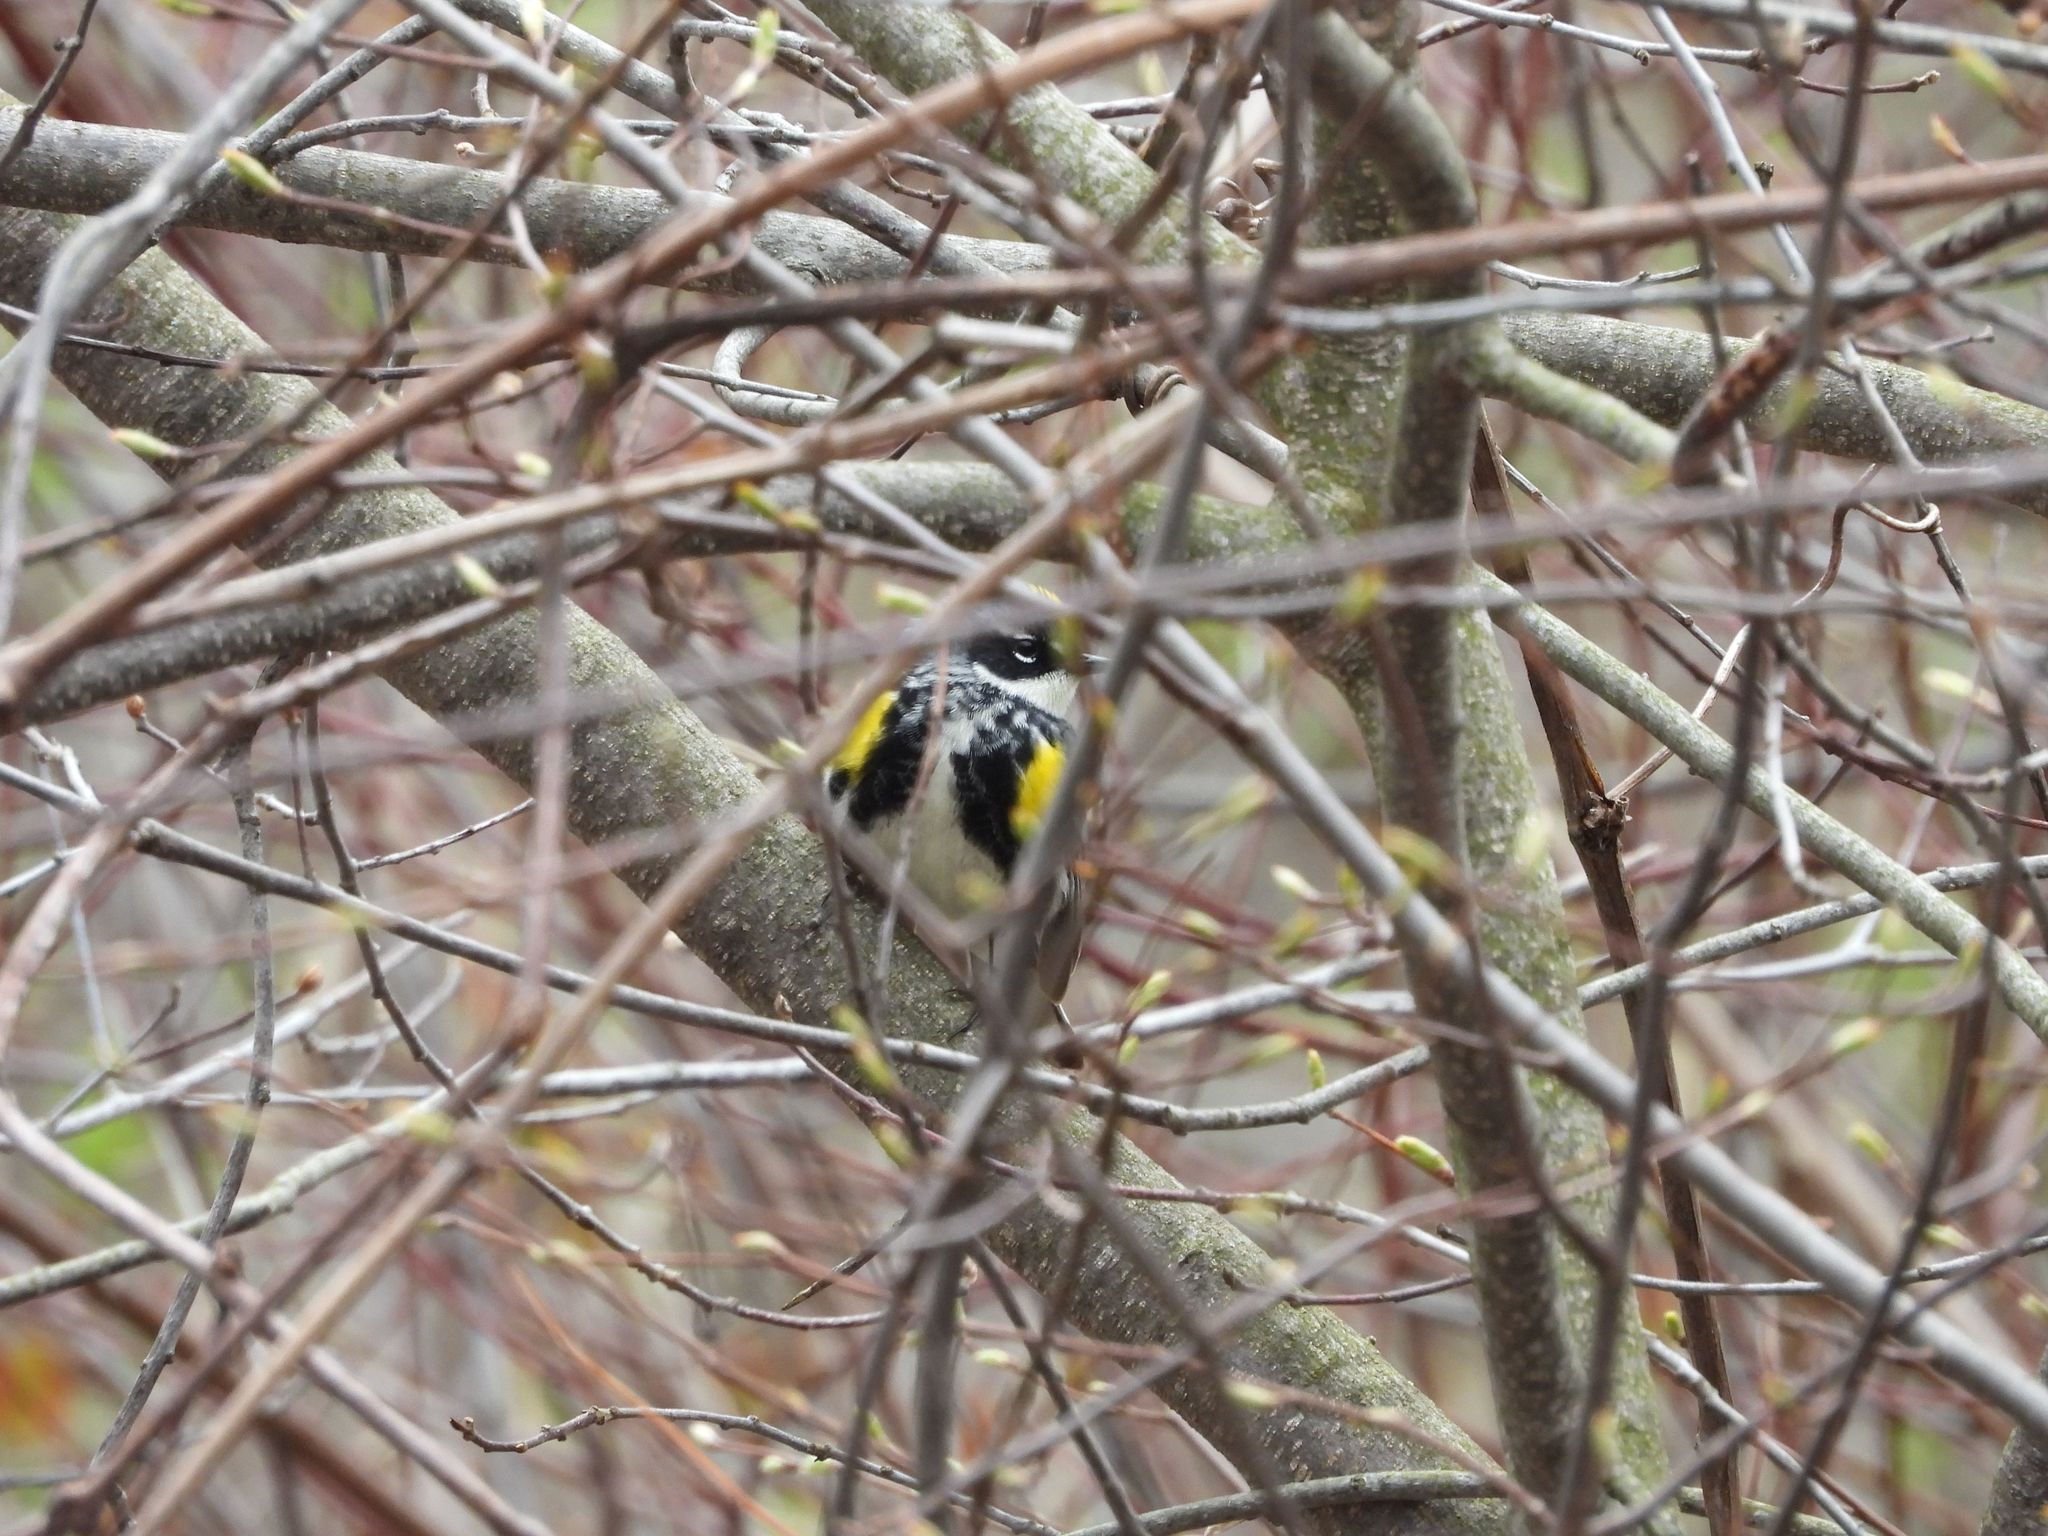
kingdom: Animalia
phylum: Chordata
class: Aves
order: Passeriformes
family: Parulidae
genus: Setophaga
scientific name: Setophaga coronata
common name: Myrtle warbler
